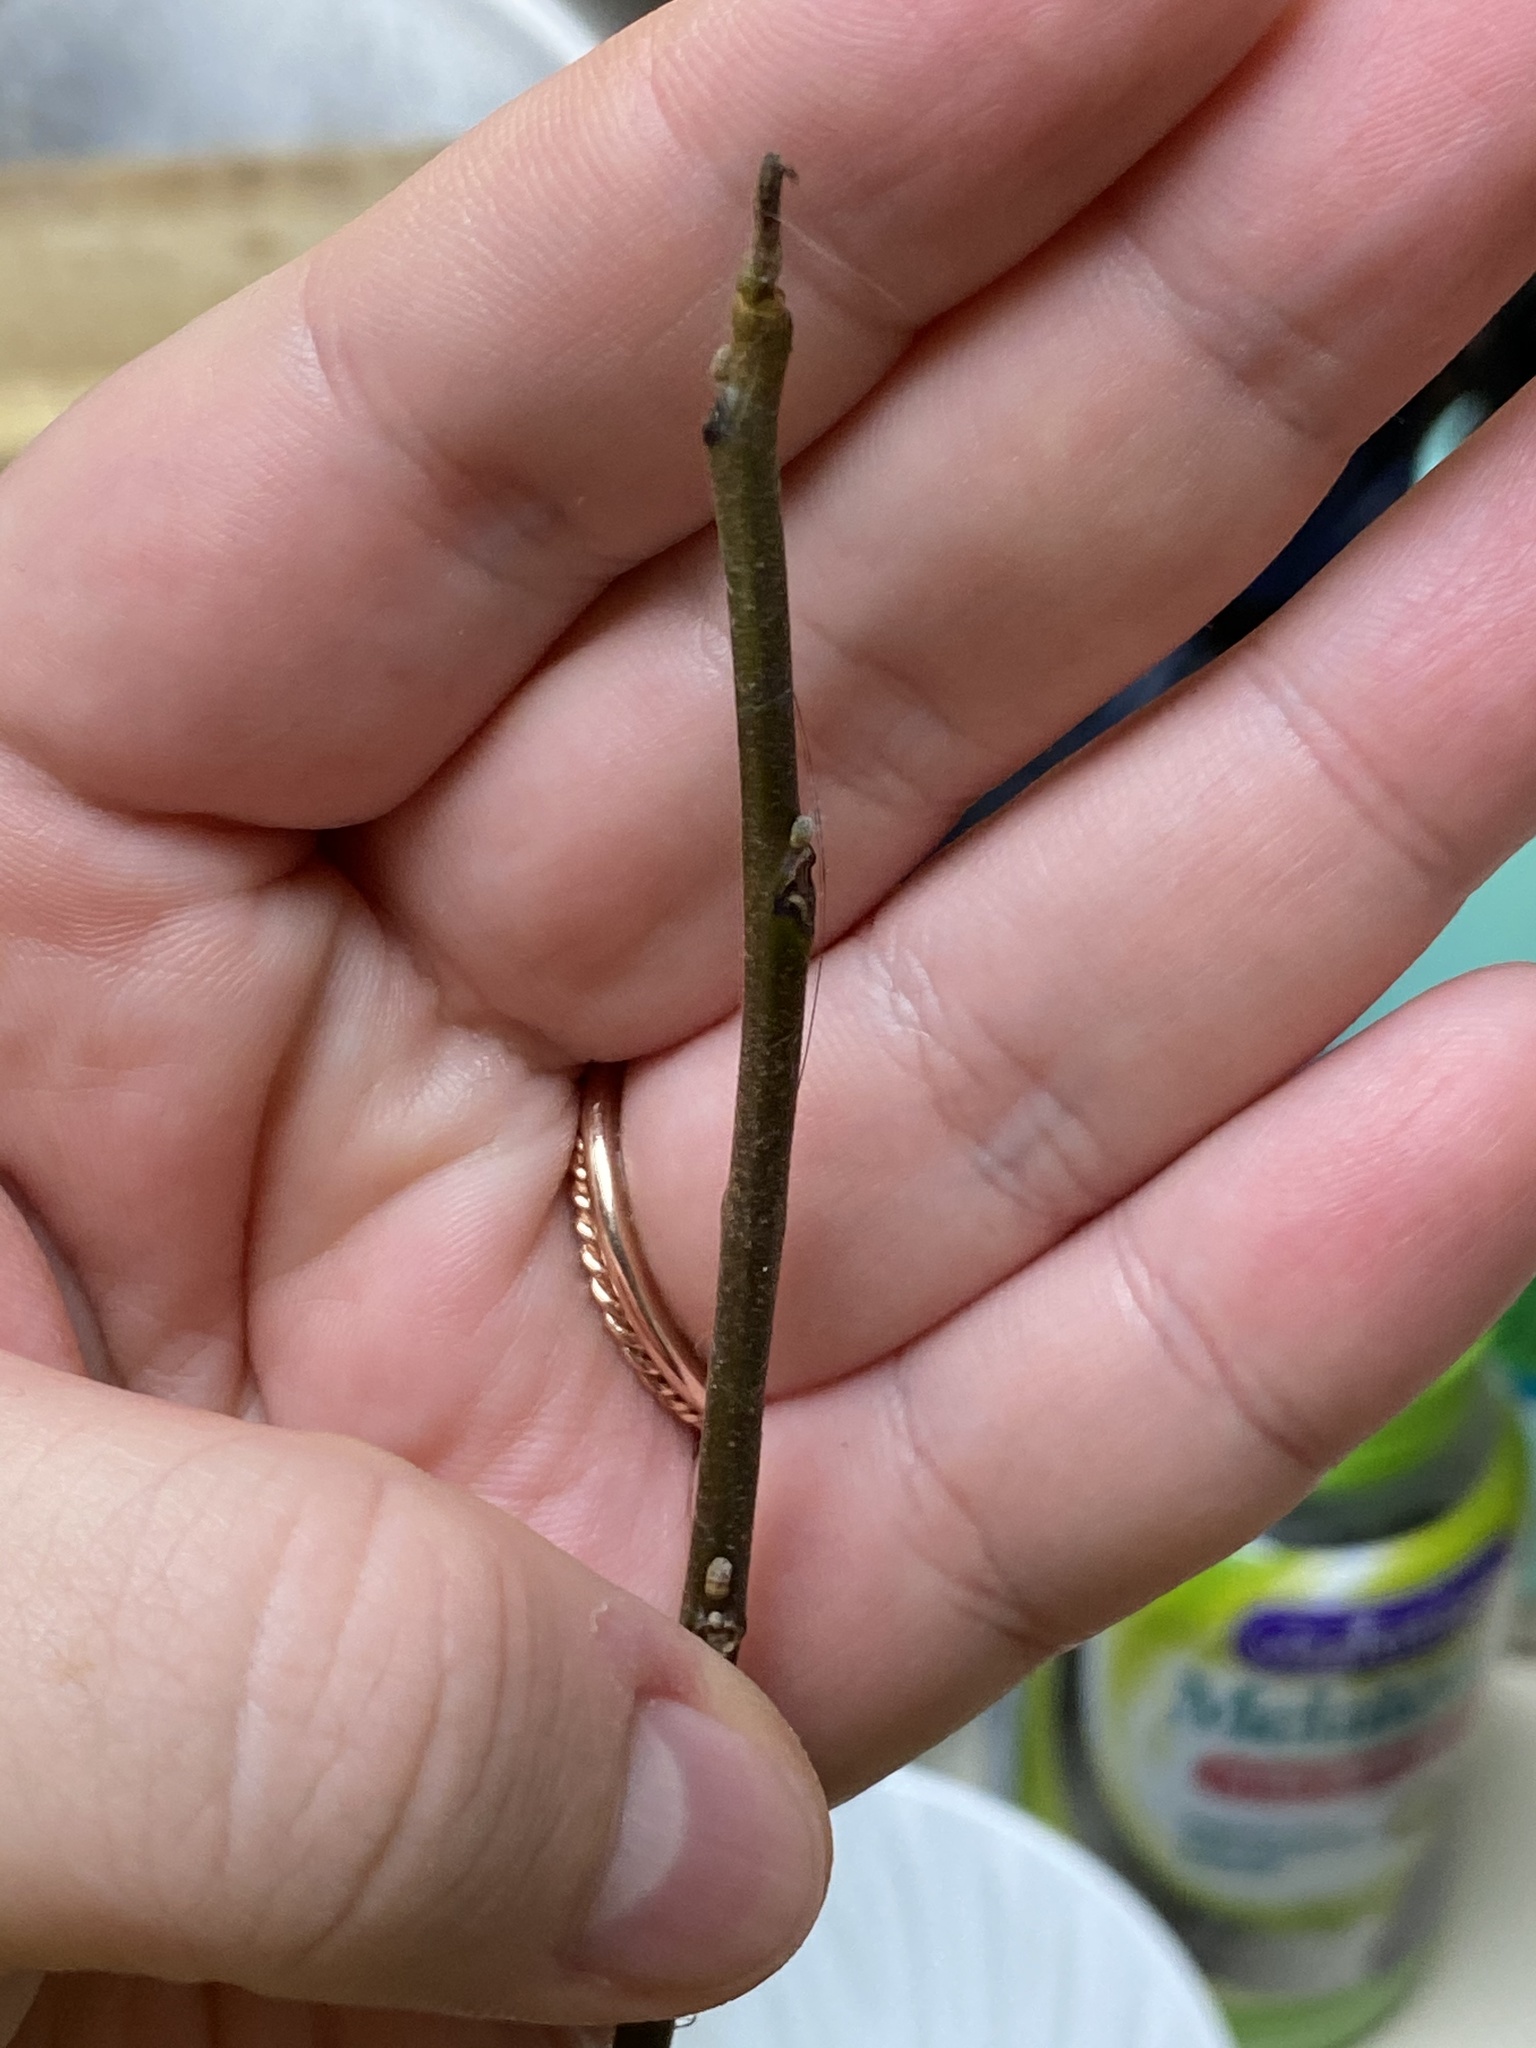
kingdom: Plantae
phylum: Tracheophyta
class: Magnoliopsida
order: Fagales
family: Juglandaceae
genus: Juglans
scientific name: Juglans nigra
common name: Black walnut
